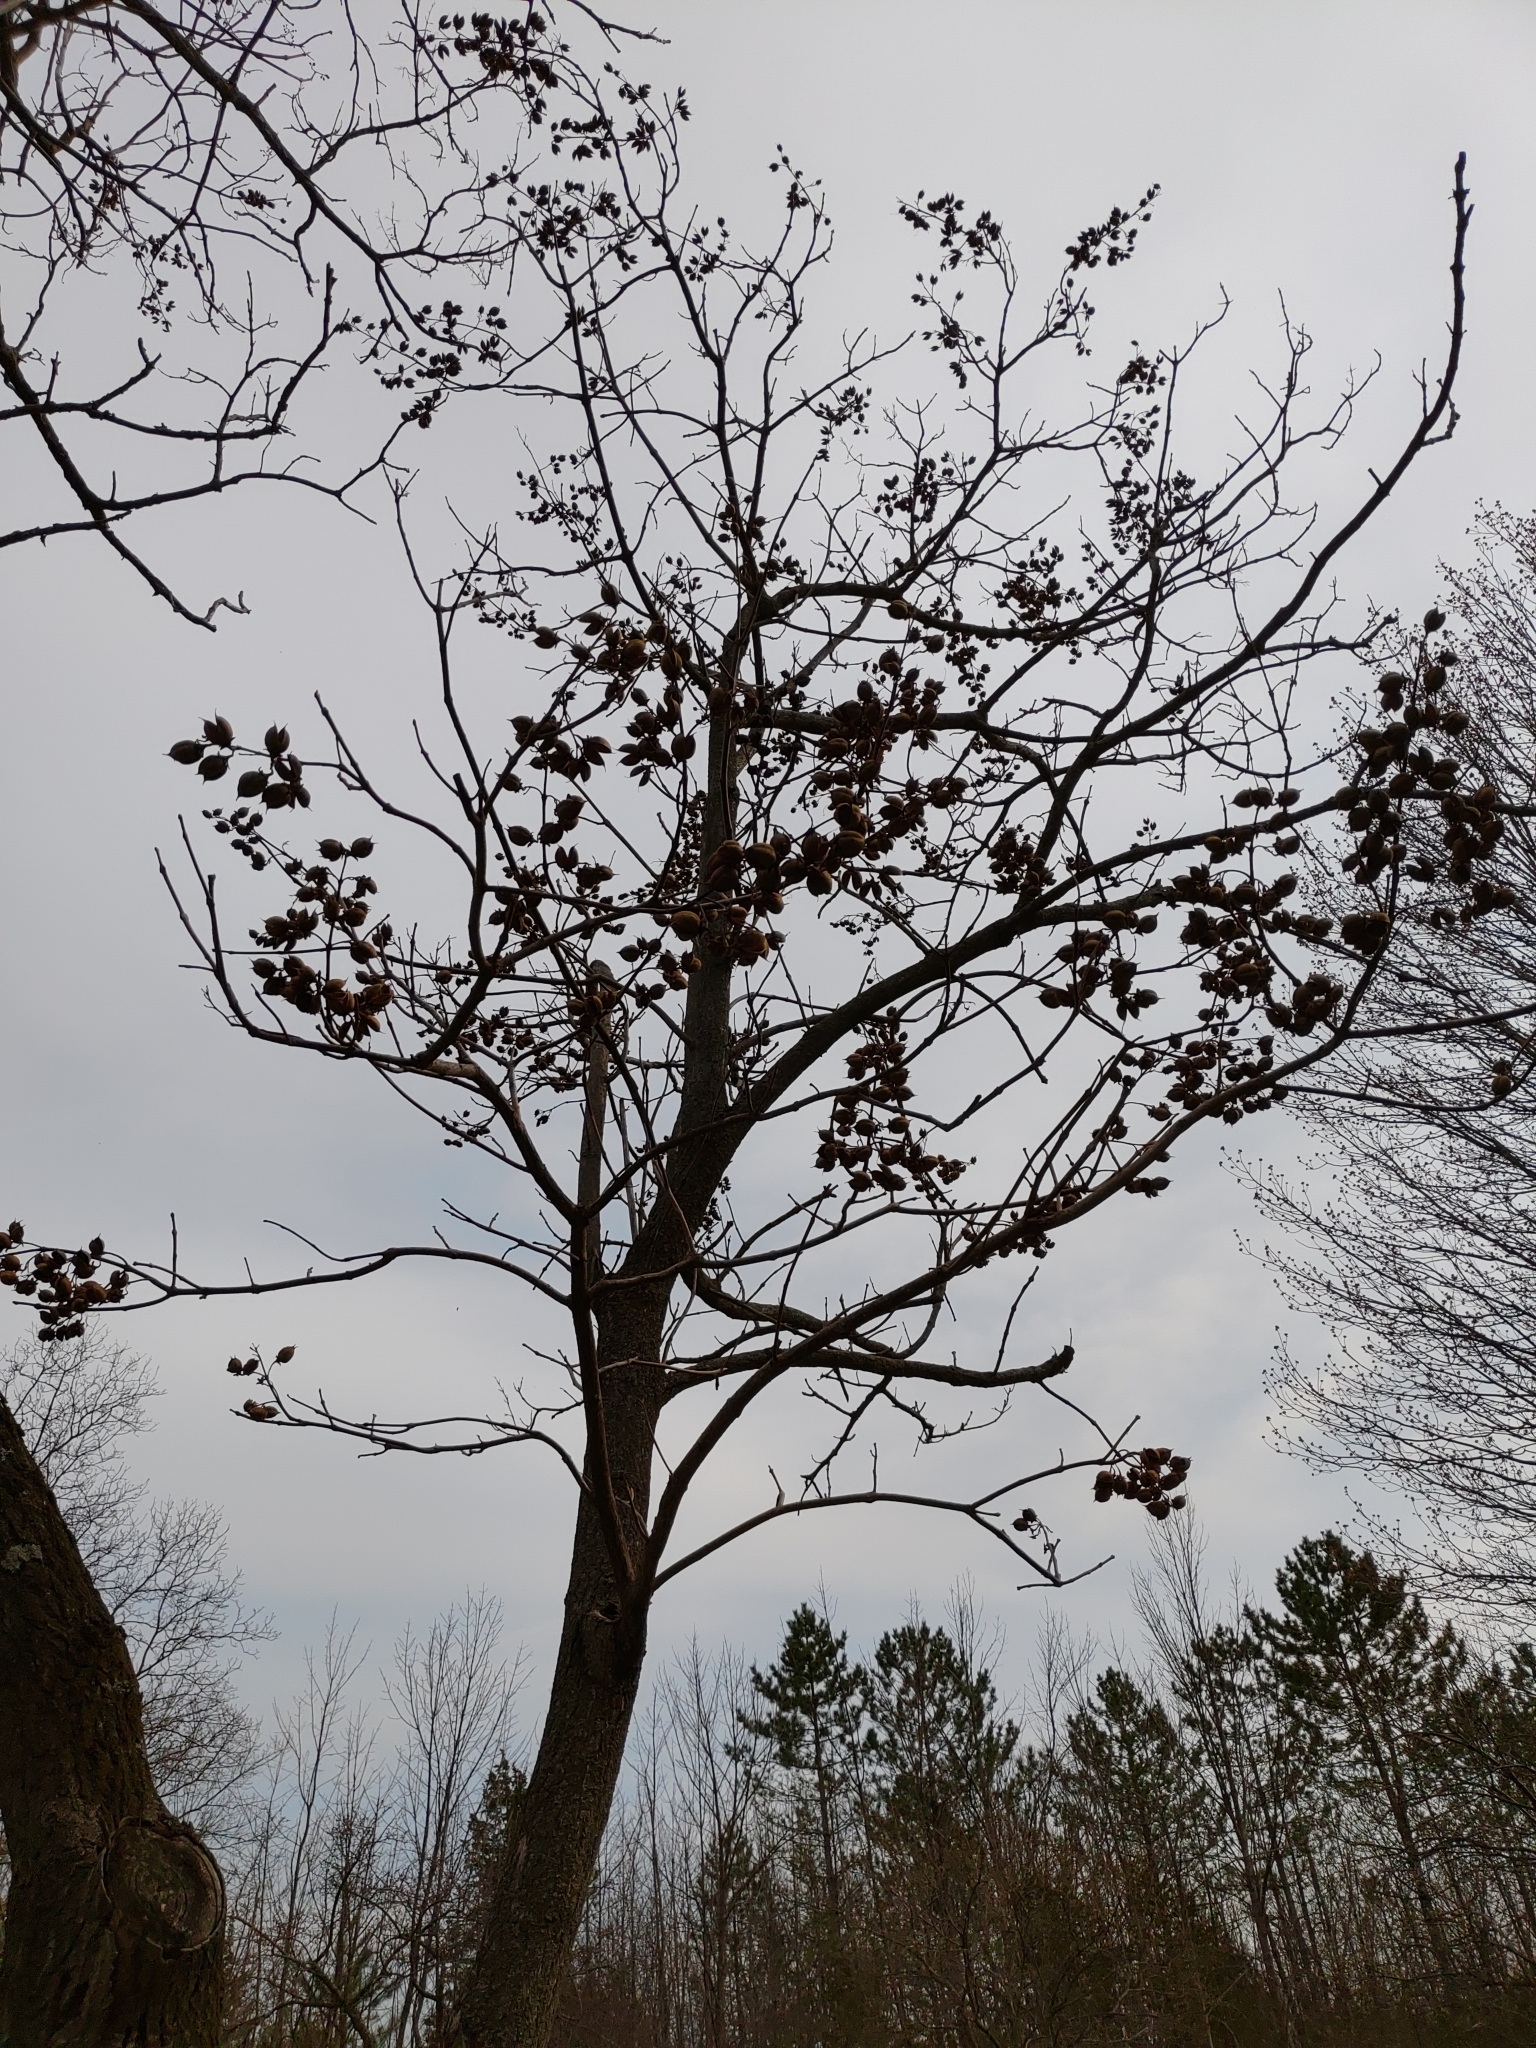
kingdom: Plantae
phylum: Tracheophyta
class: Magnoliopsida
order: Lamiales
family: Paulowniaceae
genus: Paulownia
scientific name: Paulownia tomentosa
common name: Foxglove-tree
